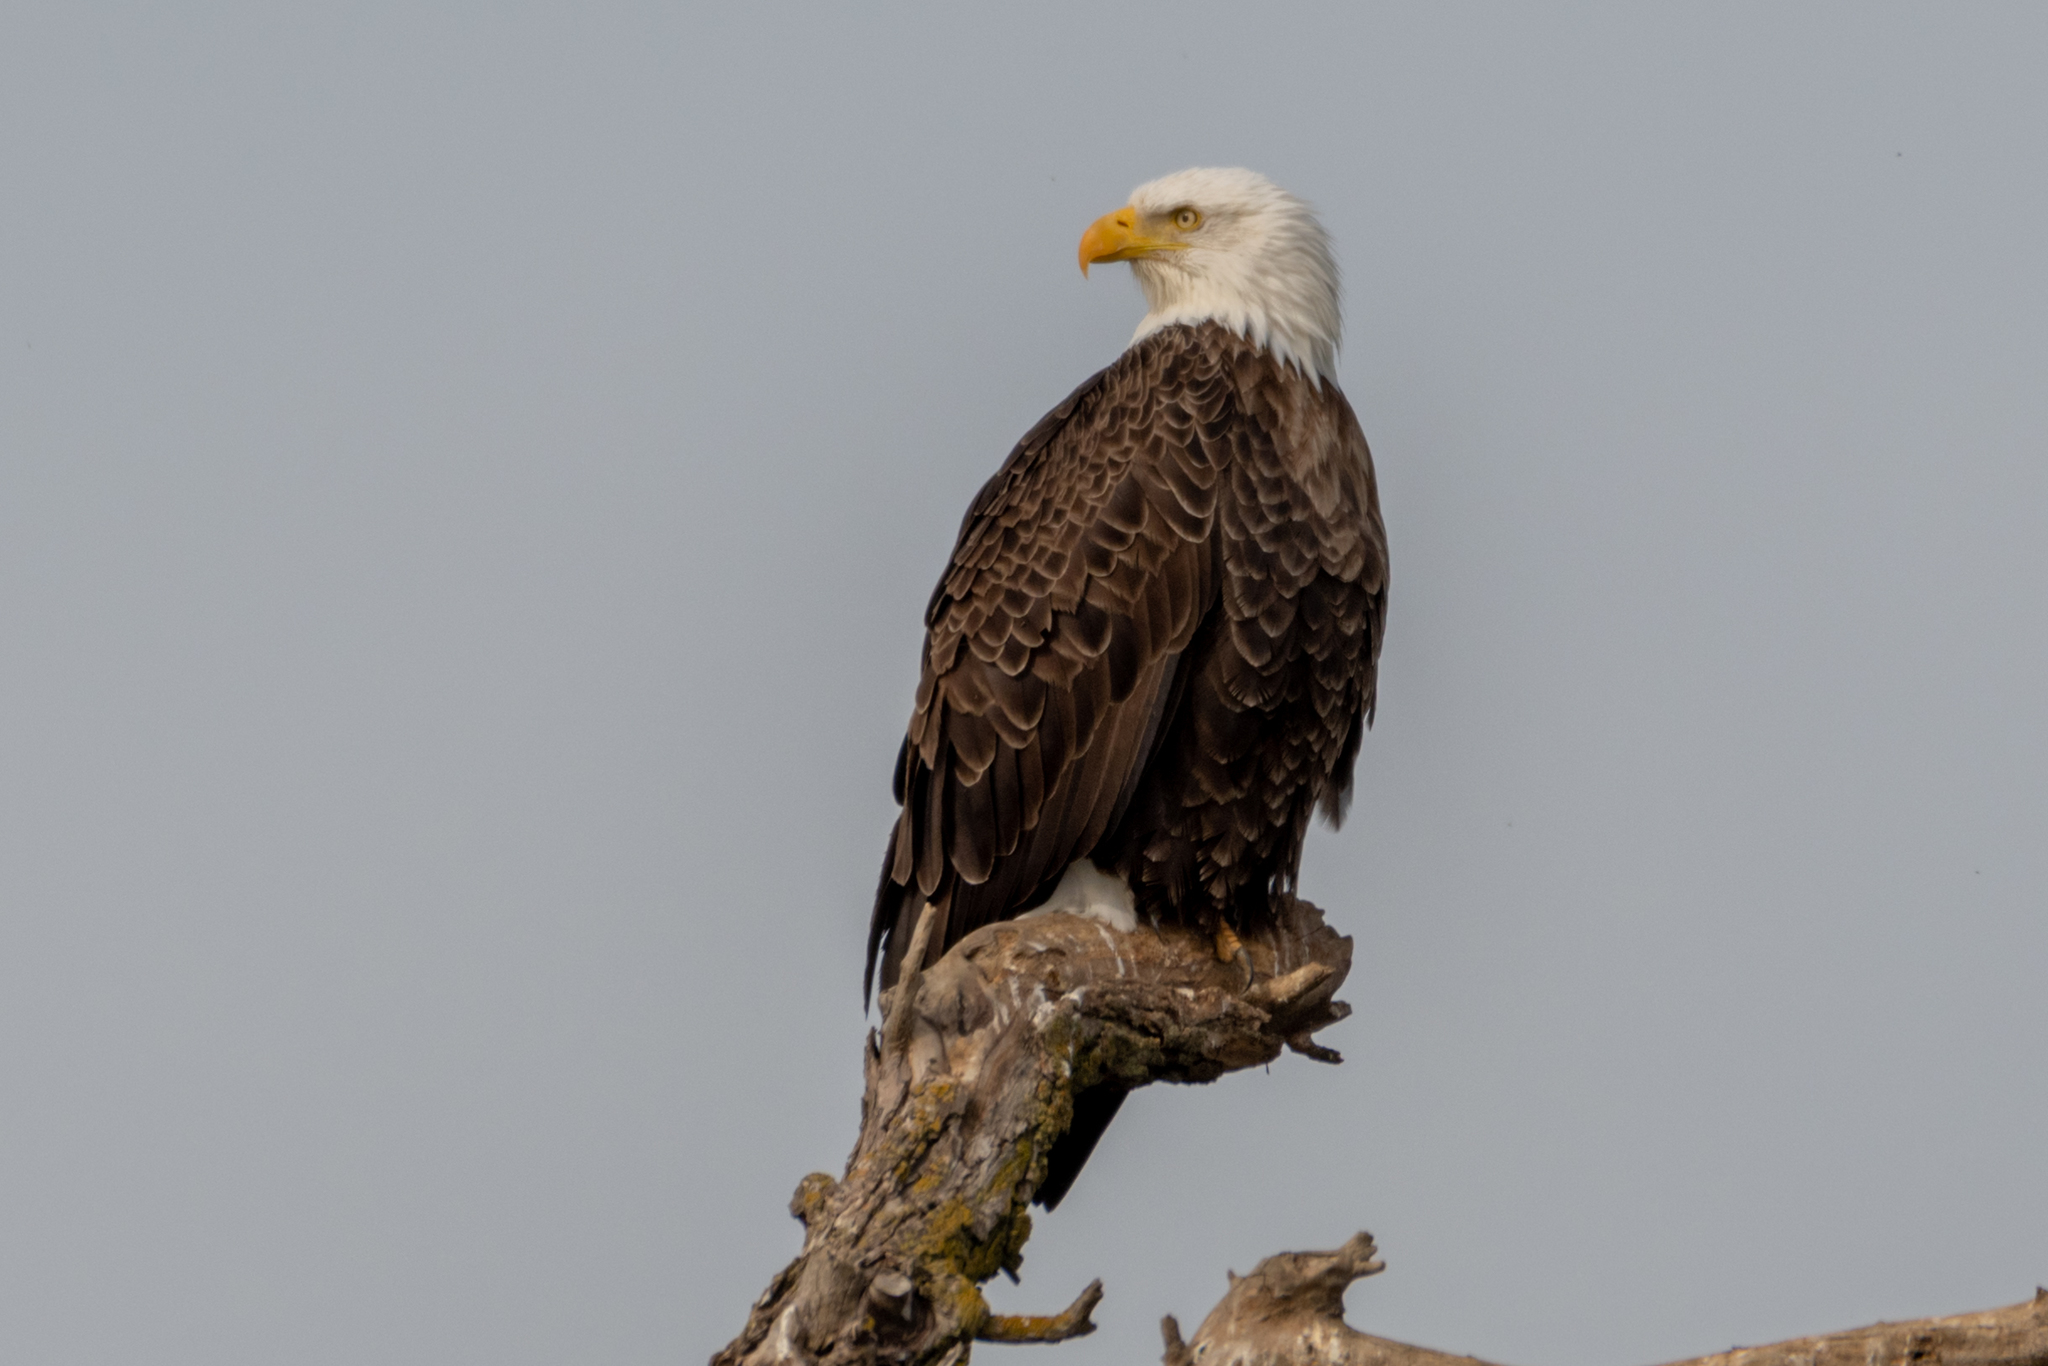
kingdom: Animalia
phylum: Chordata
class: Aves
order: Accipitriformes
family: Accipitridae
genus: Haliaeetus
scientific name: Haliaeetus leucocephalus
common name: Bald eagle
